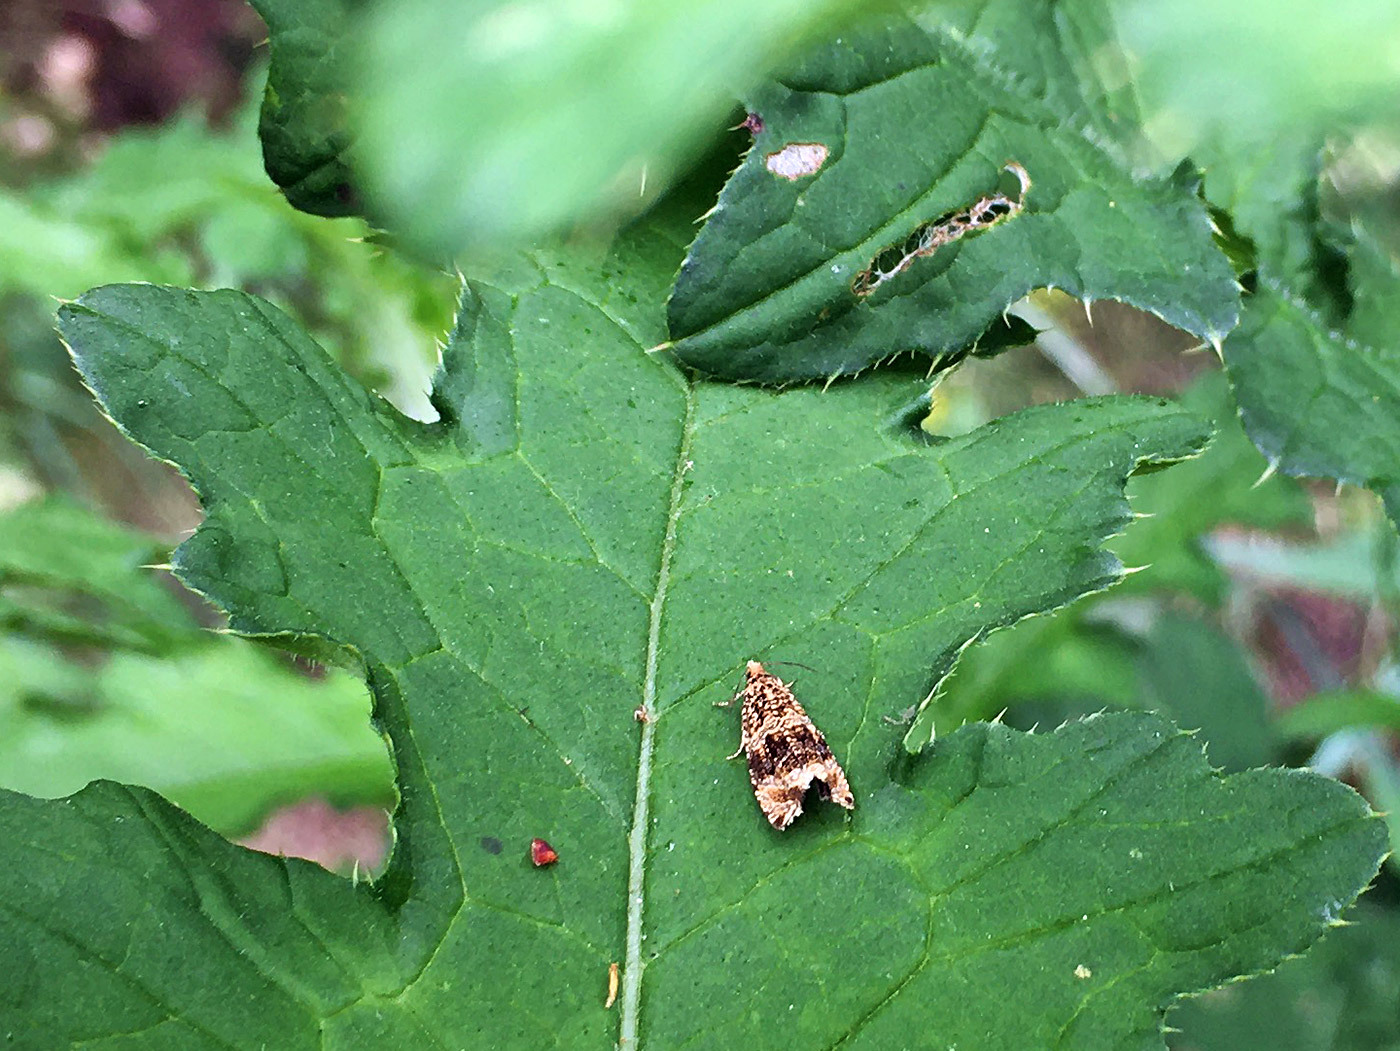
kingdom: Animalia
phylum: Arthropoda
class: Insecta
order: Lepidoptera
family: Tortricidae
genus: Syricoris
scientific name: Syricoris lacunana
